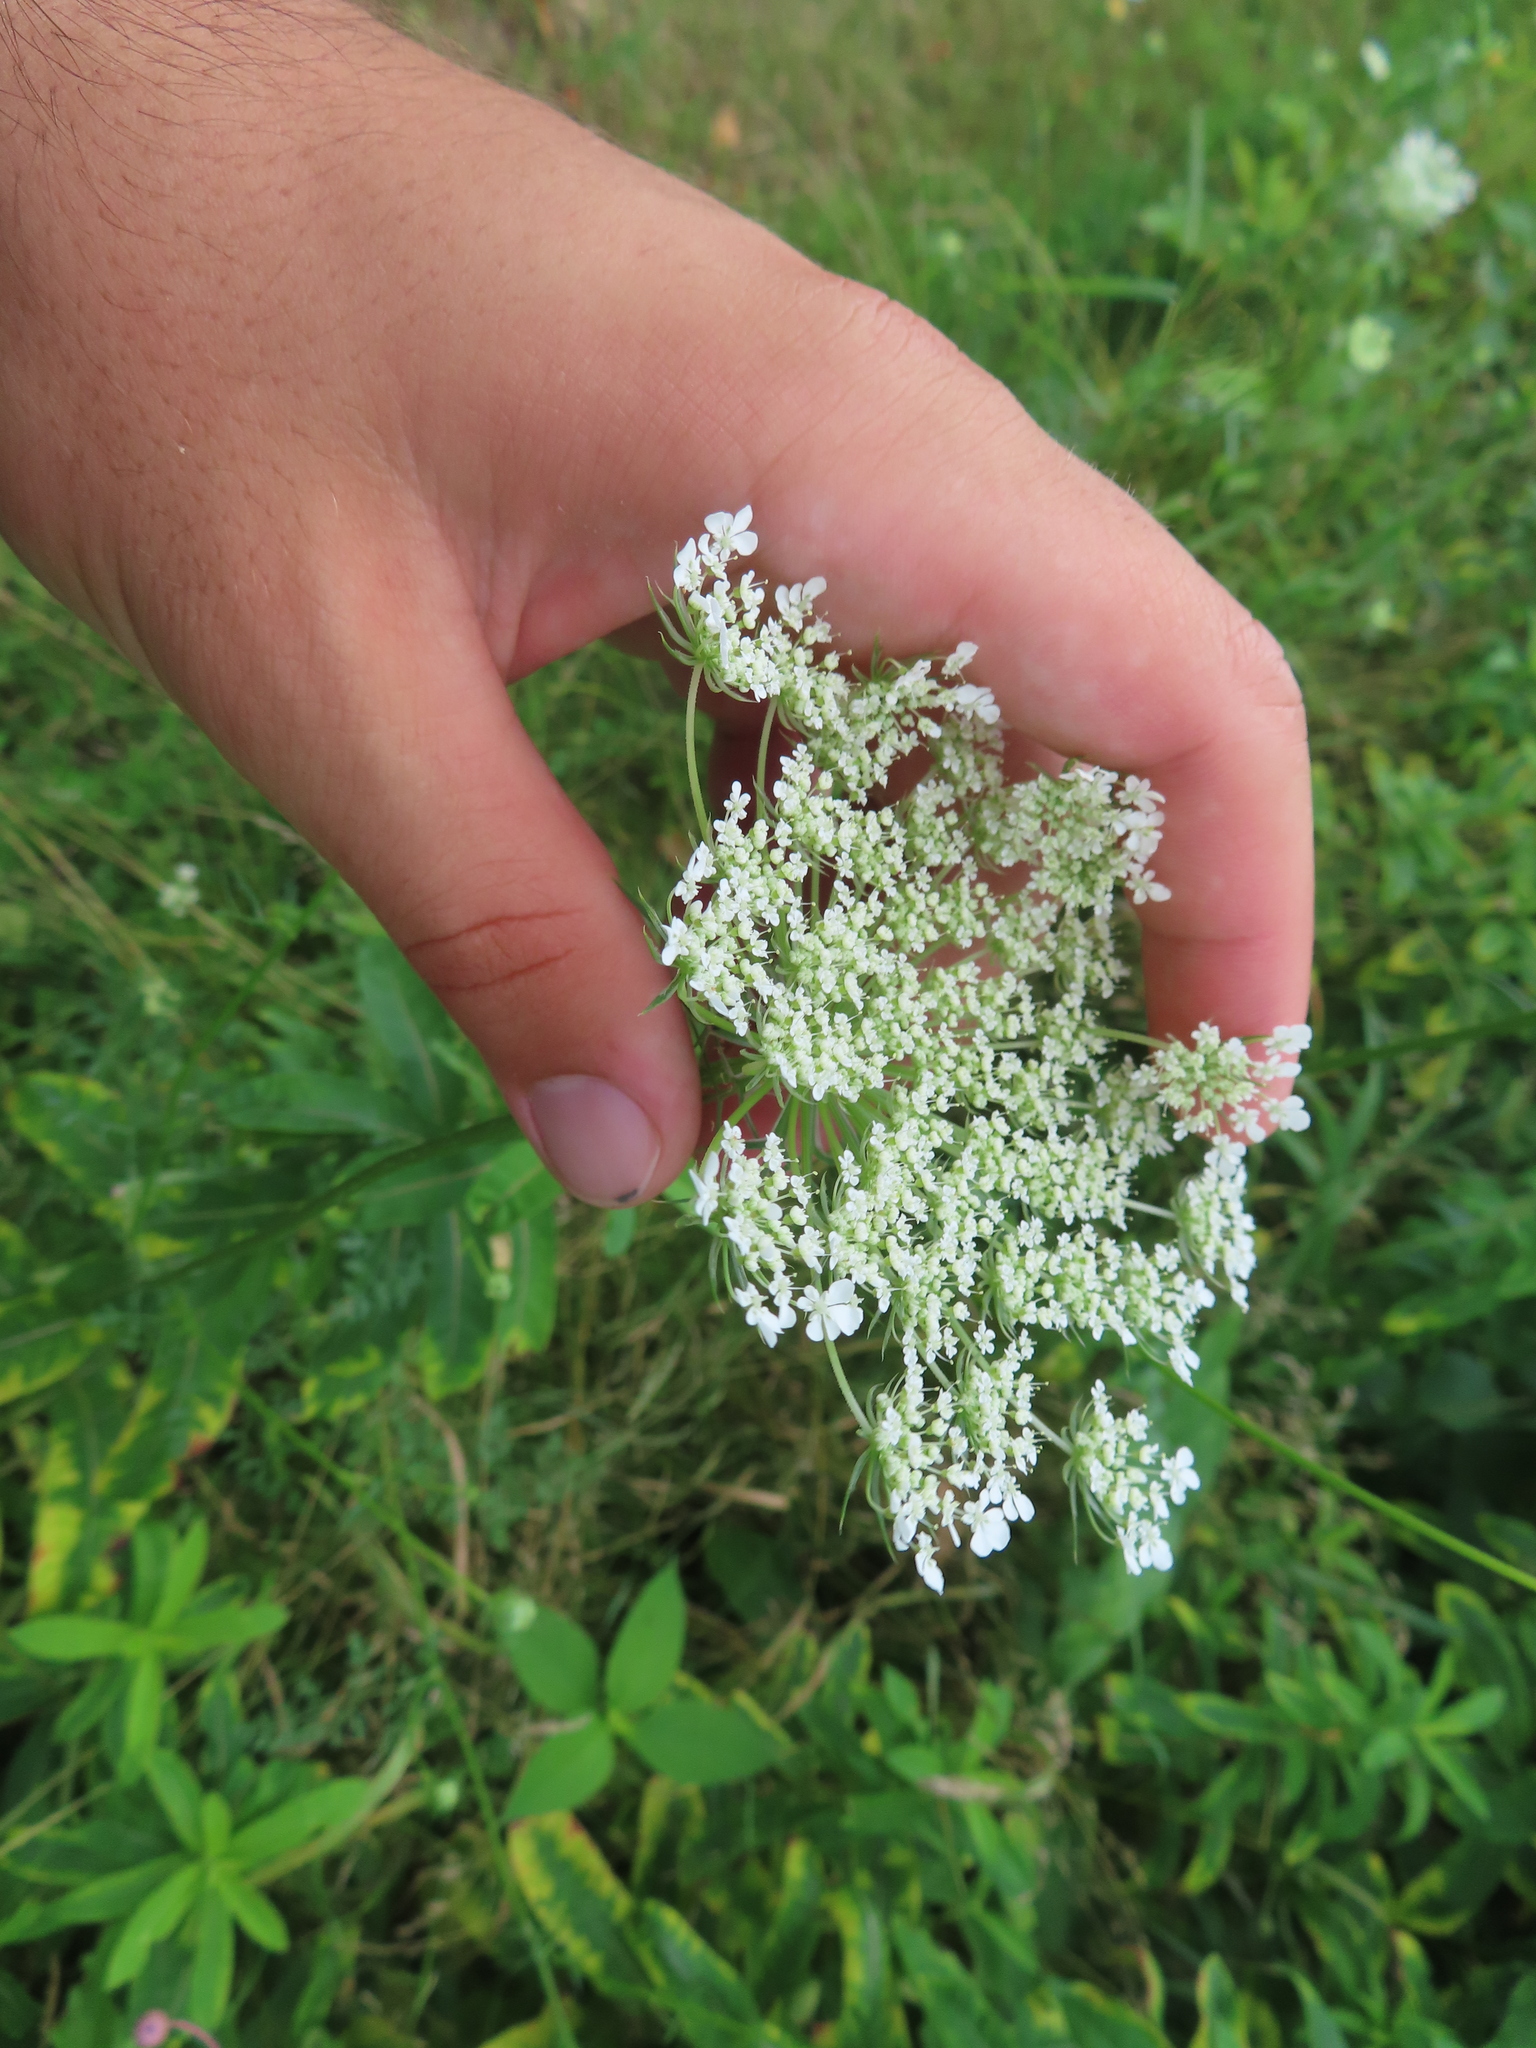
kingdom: Plantae
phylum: Tracheophyta
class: Magnoliopsida
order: Apiales
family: Apiaceae
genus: Daucus
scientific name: Daucus carota
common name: Wild carrot
